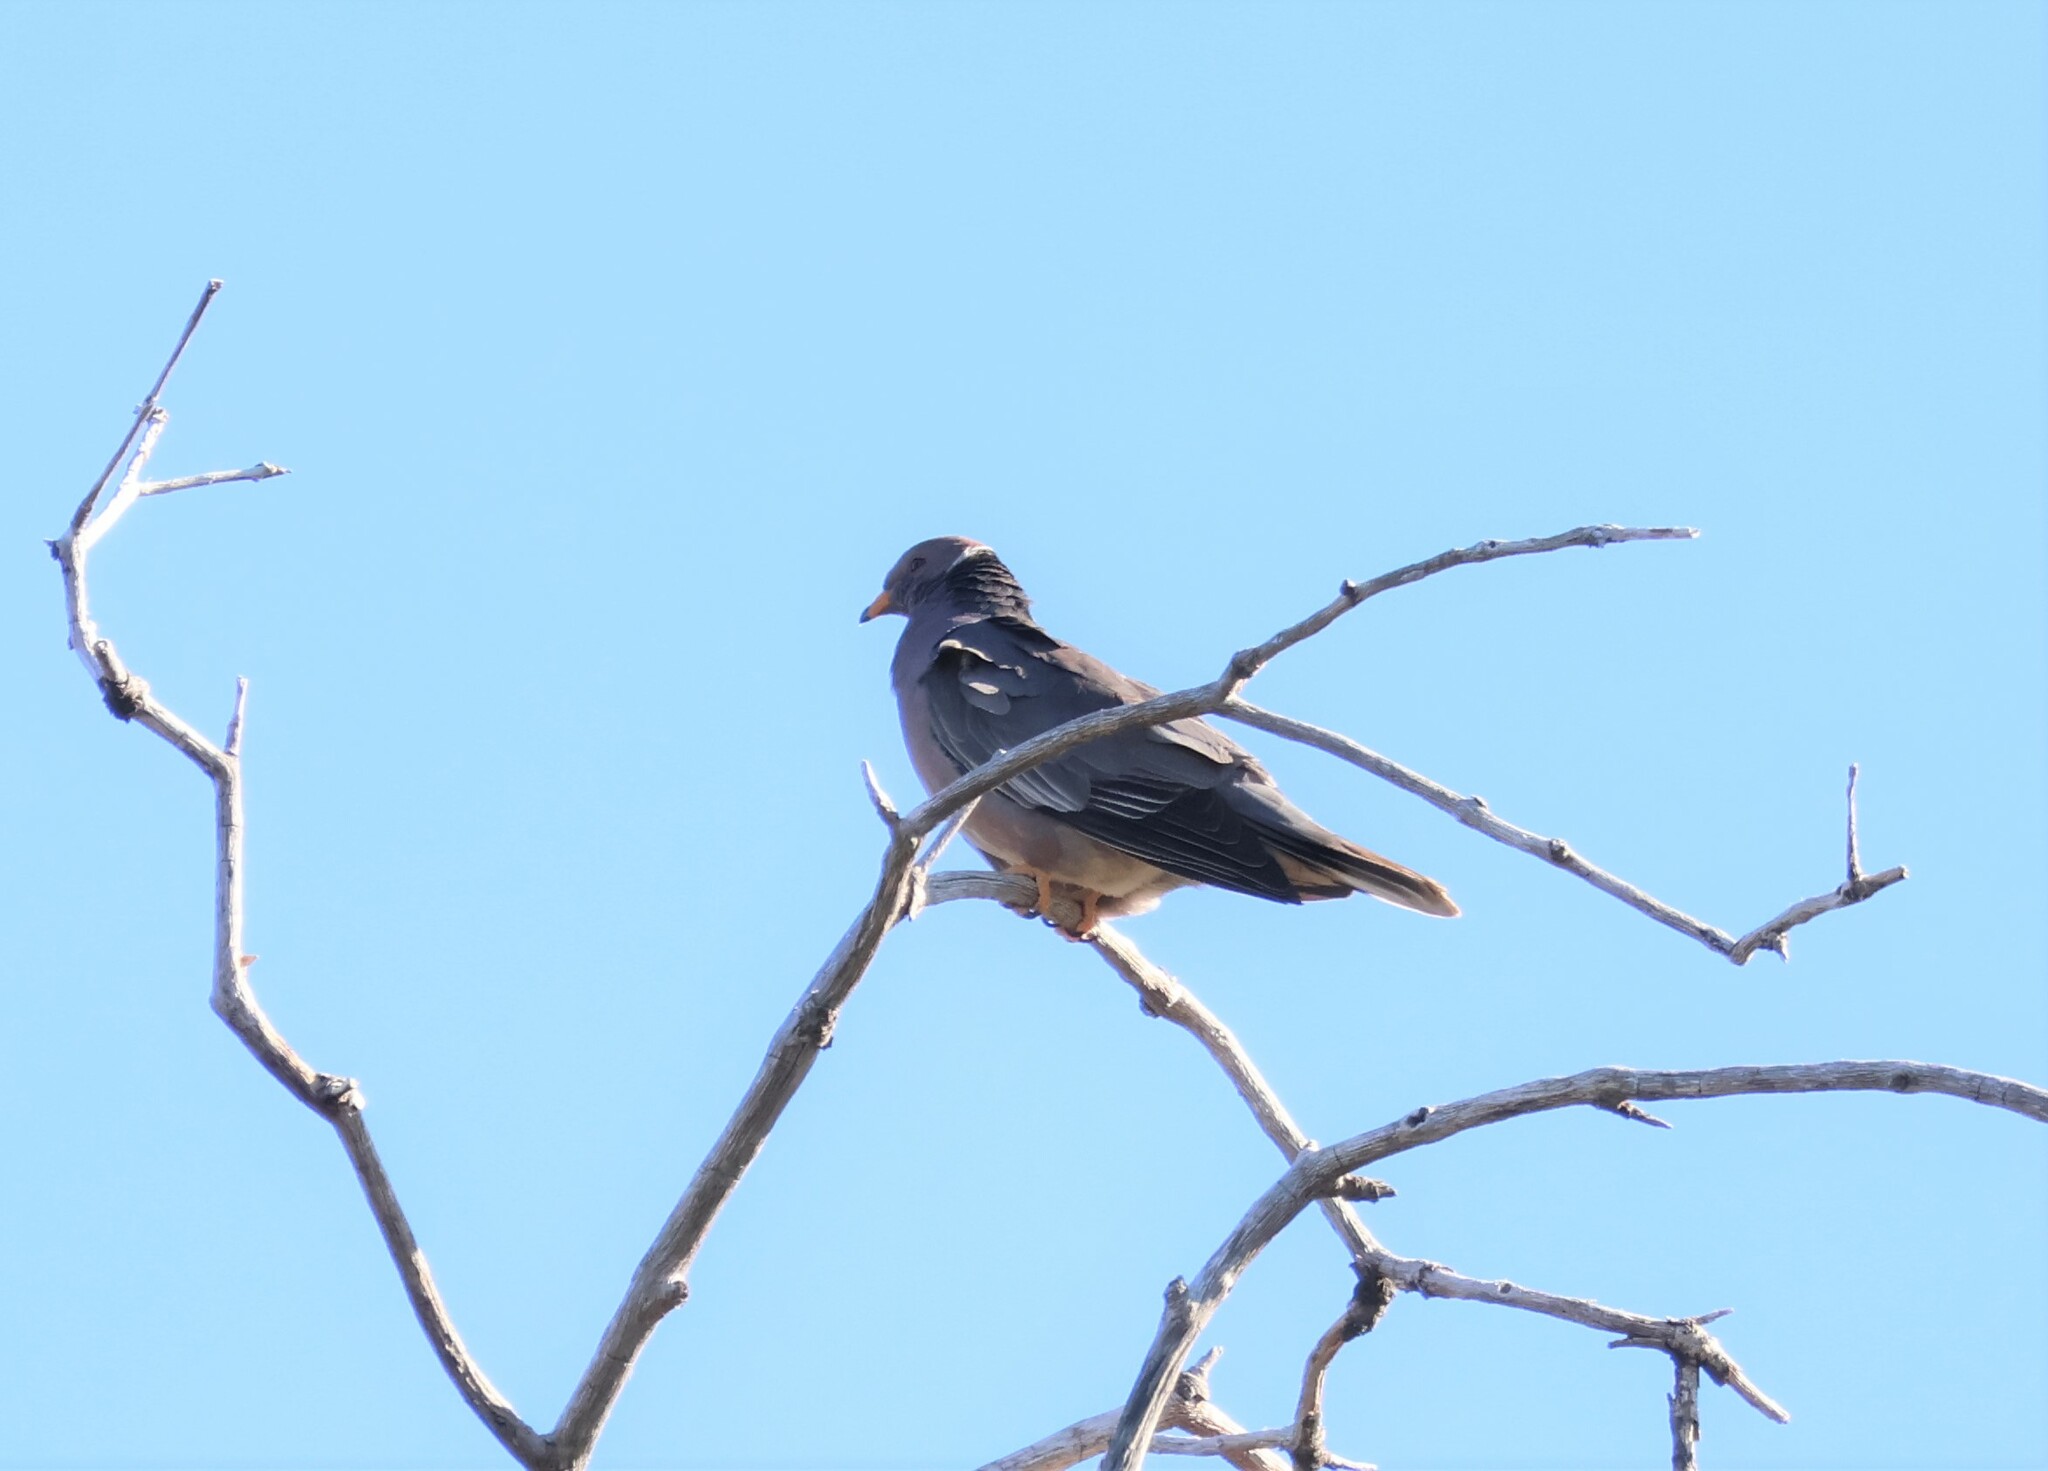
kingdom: Animalia
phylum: Chordata
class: Aves
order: Columbiformes
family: Columbidae
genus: Patagioenas
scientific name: Patagioenas fasciata
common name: Band-tailed pigeon
